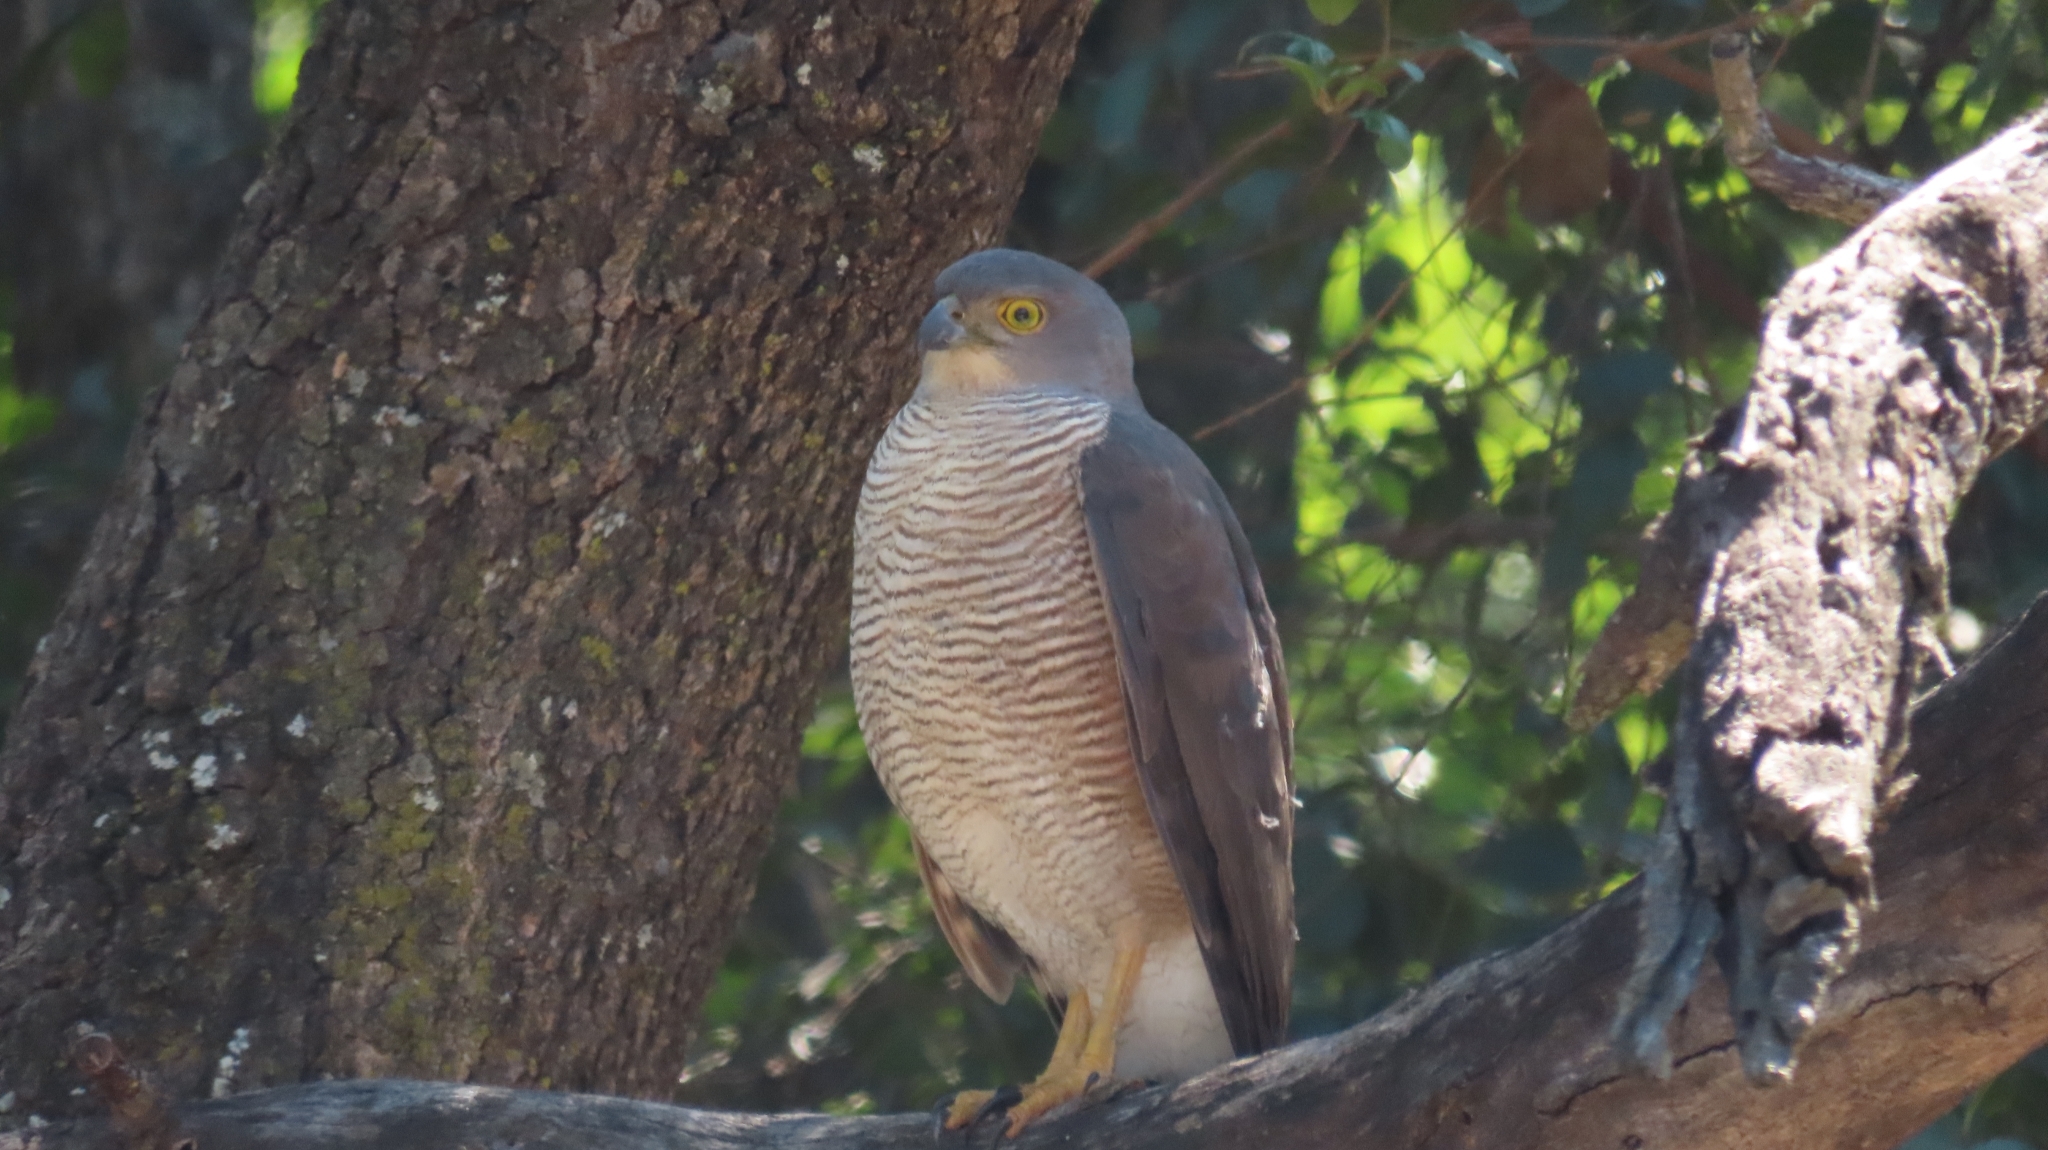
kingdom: Animalia
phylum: Chordata
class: Aves
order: Accipitriformes
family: Accipitridae
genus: Accipiter
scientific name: Accipiter tachiro
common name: African goshawk
